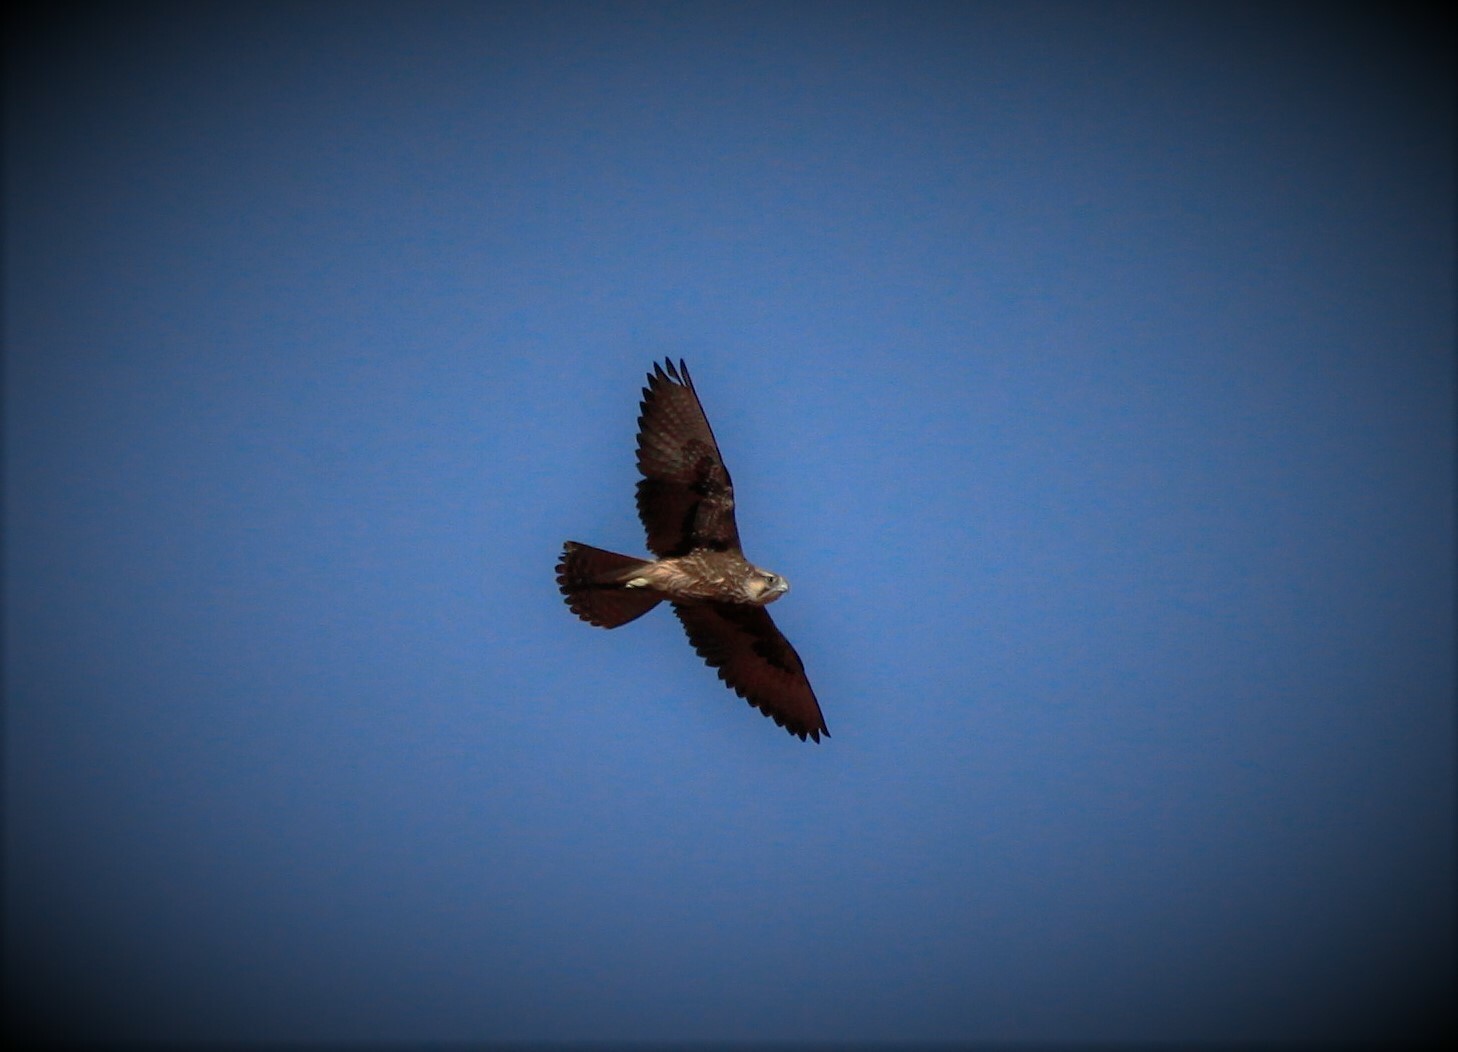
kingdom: Animalia
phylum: Chordata
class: Aves
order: Falconiformes
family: Falconidae
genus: Falco
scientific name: Falco biarmicus
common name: Lanner falcon
